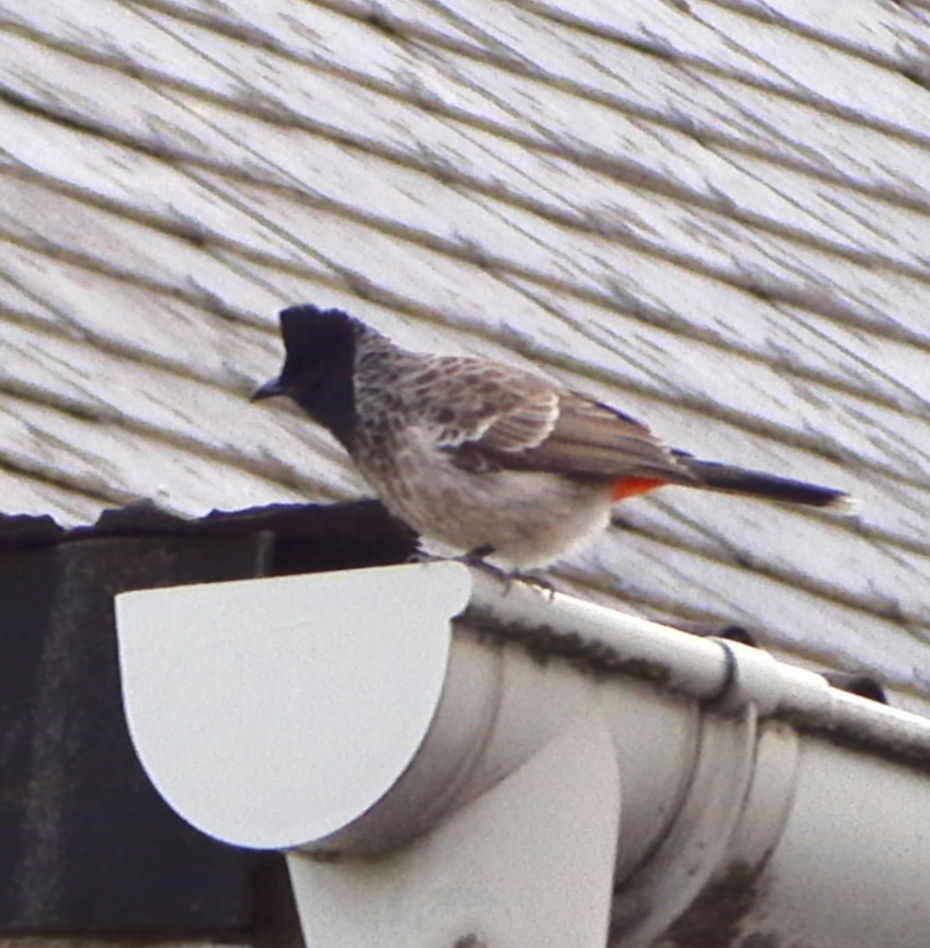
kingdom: Animalia
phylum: Chordata
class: Aves
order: Passeriformes
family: Pycnonotidae
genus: Pycnonotus
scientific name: Pycnonotus cafer
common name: Red-vented bulbul
